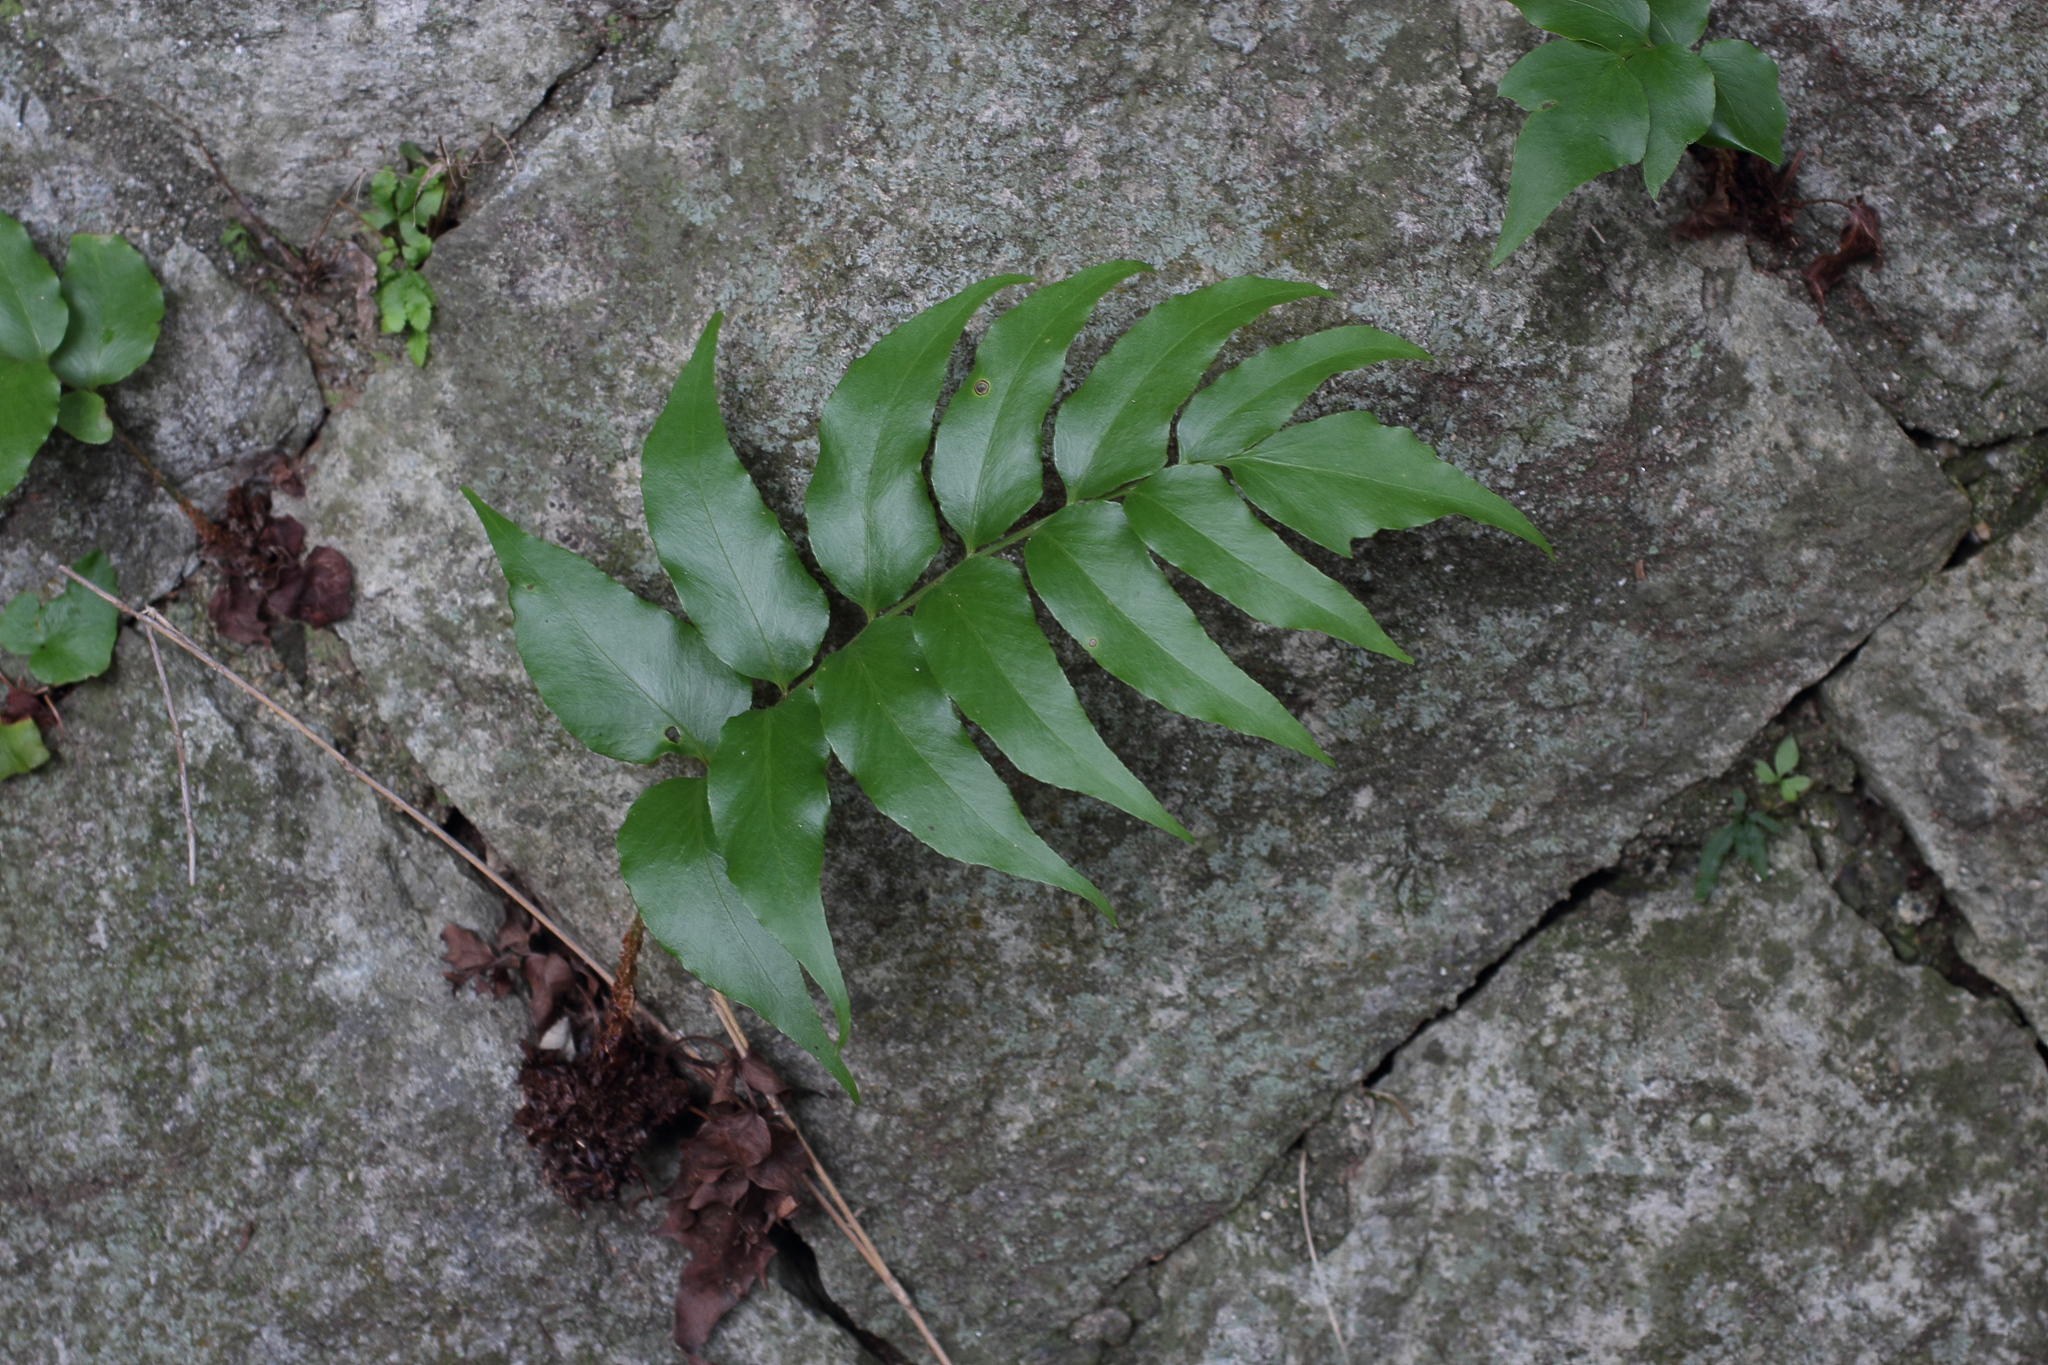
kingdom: Plantae
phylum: Tracheophyta
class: Polypodiopsida
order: Polypodiales
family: Dryopteridaceae
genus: Cyrtomium
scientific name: Cyrtomium fortunei
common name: Asian netvein hollyfern
